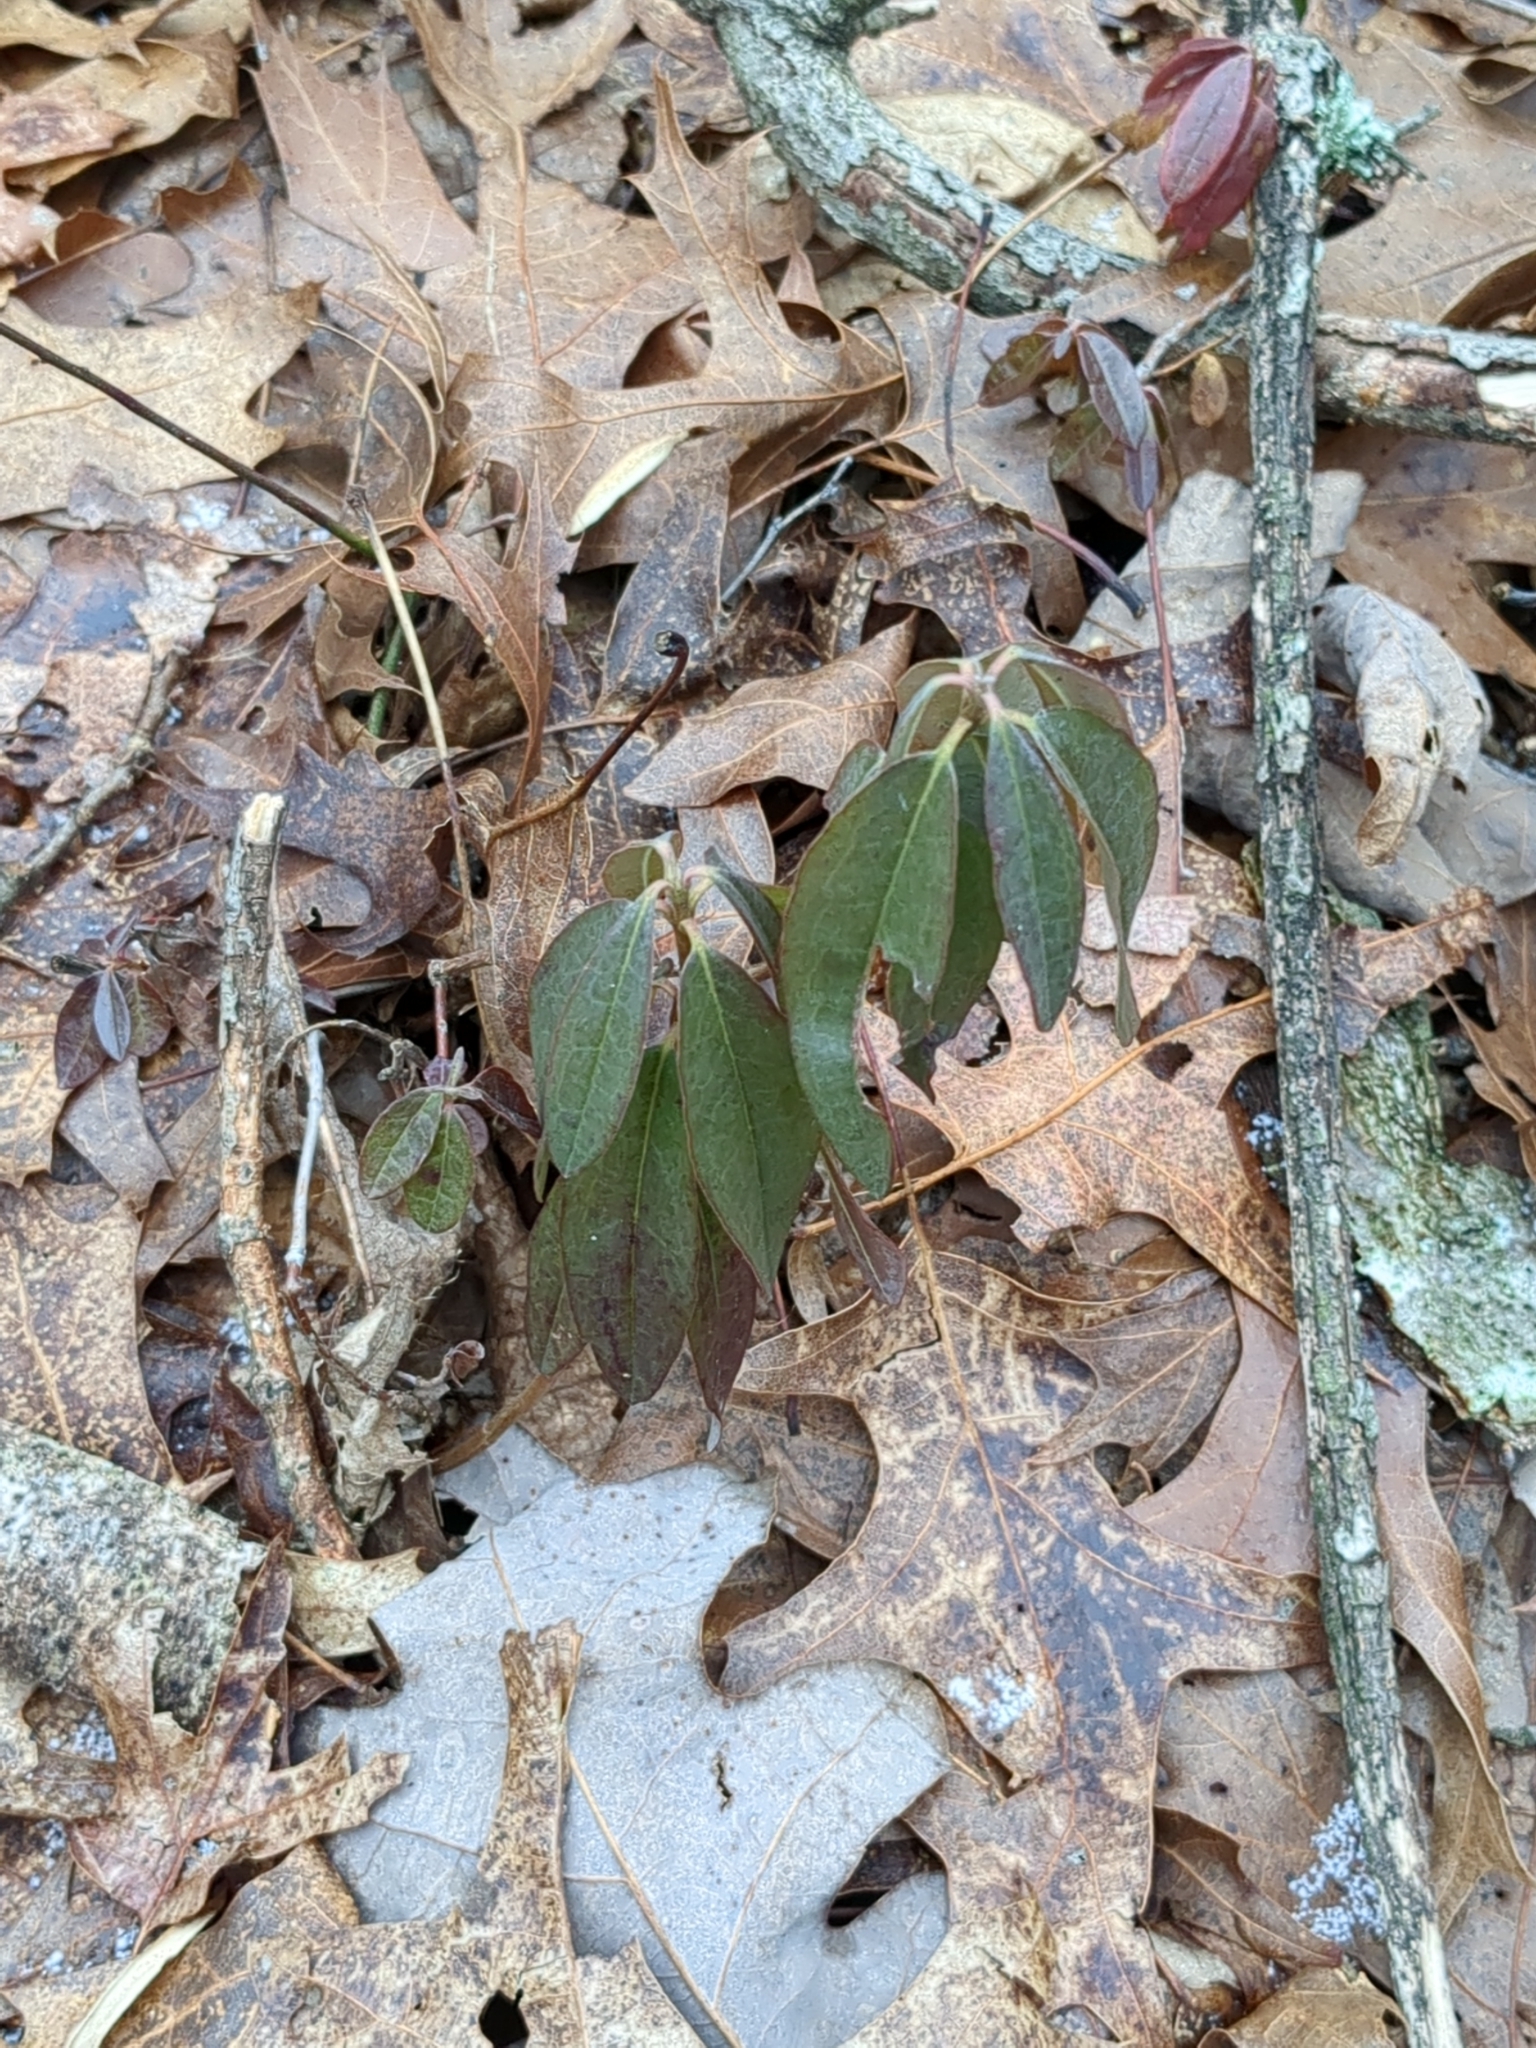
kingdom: Plantae
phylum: Tracheophyta
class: Magnoliopsida
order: Ericales
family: Ericaceae
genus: Kalmia
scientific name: Kalmia angustifolia
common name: Sheep-laurel
